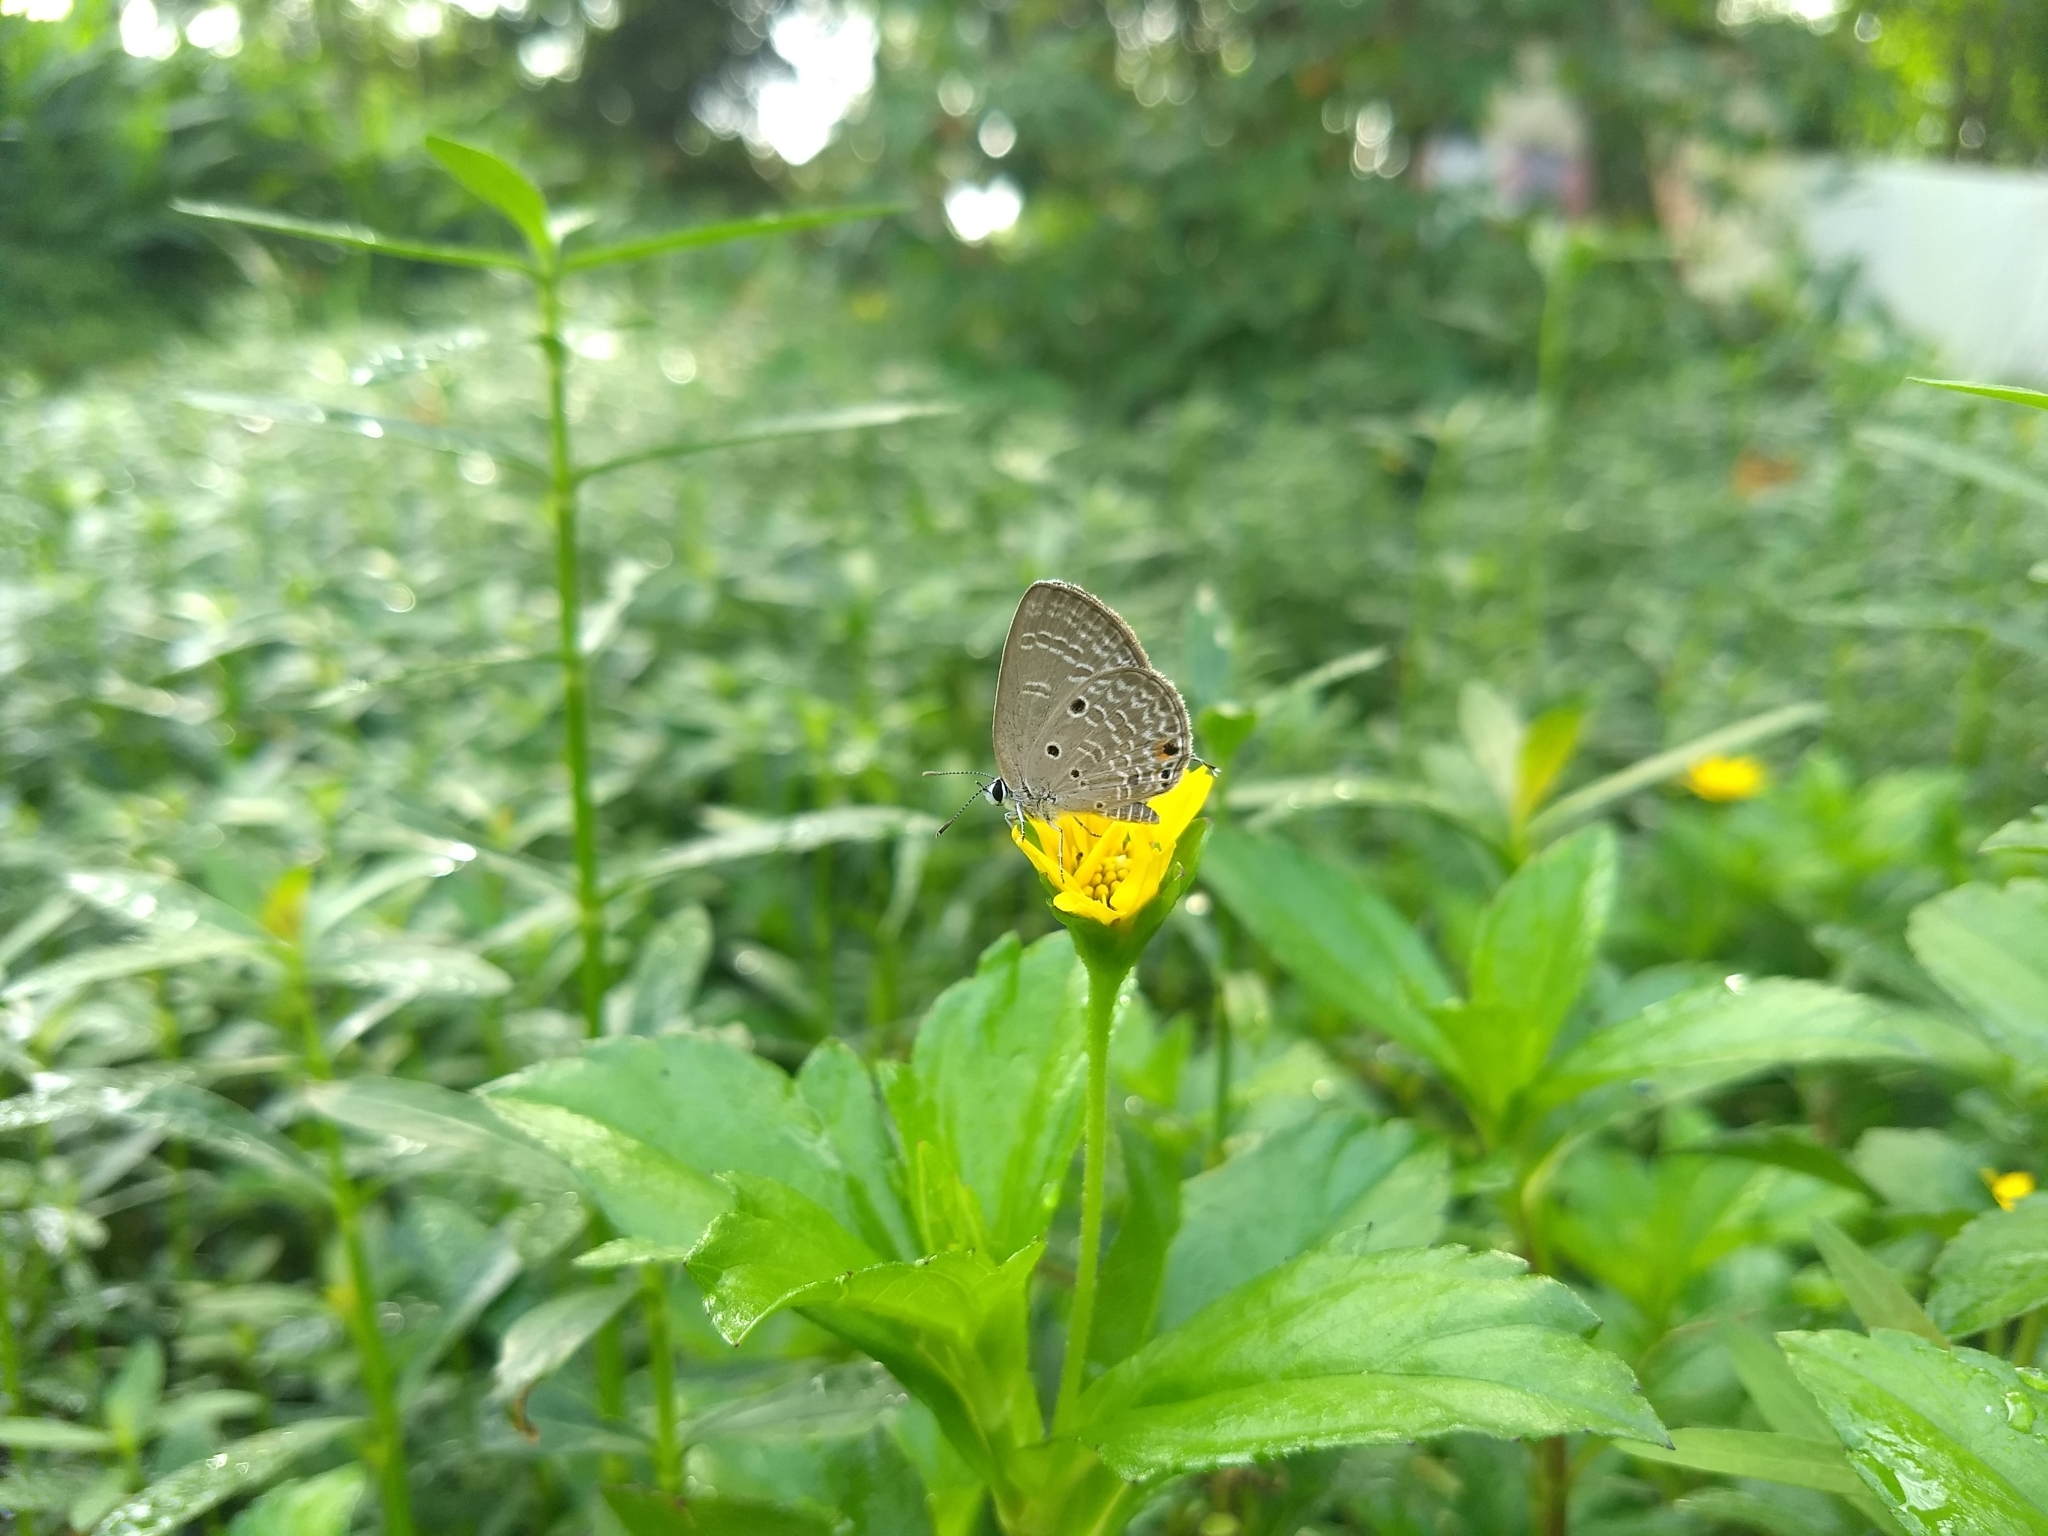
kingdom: Animalia
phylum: Arthropoda
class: Insecta
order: Lepidoptera
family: Lycaenidae
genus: Luthrodes
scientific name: Luthrodes pandava
